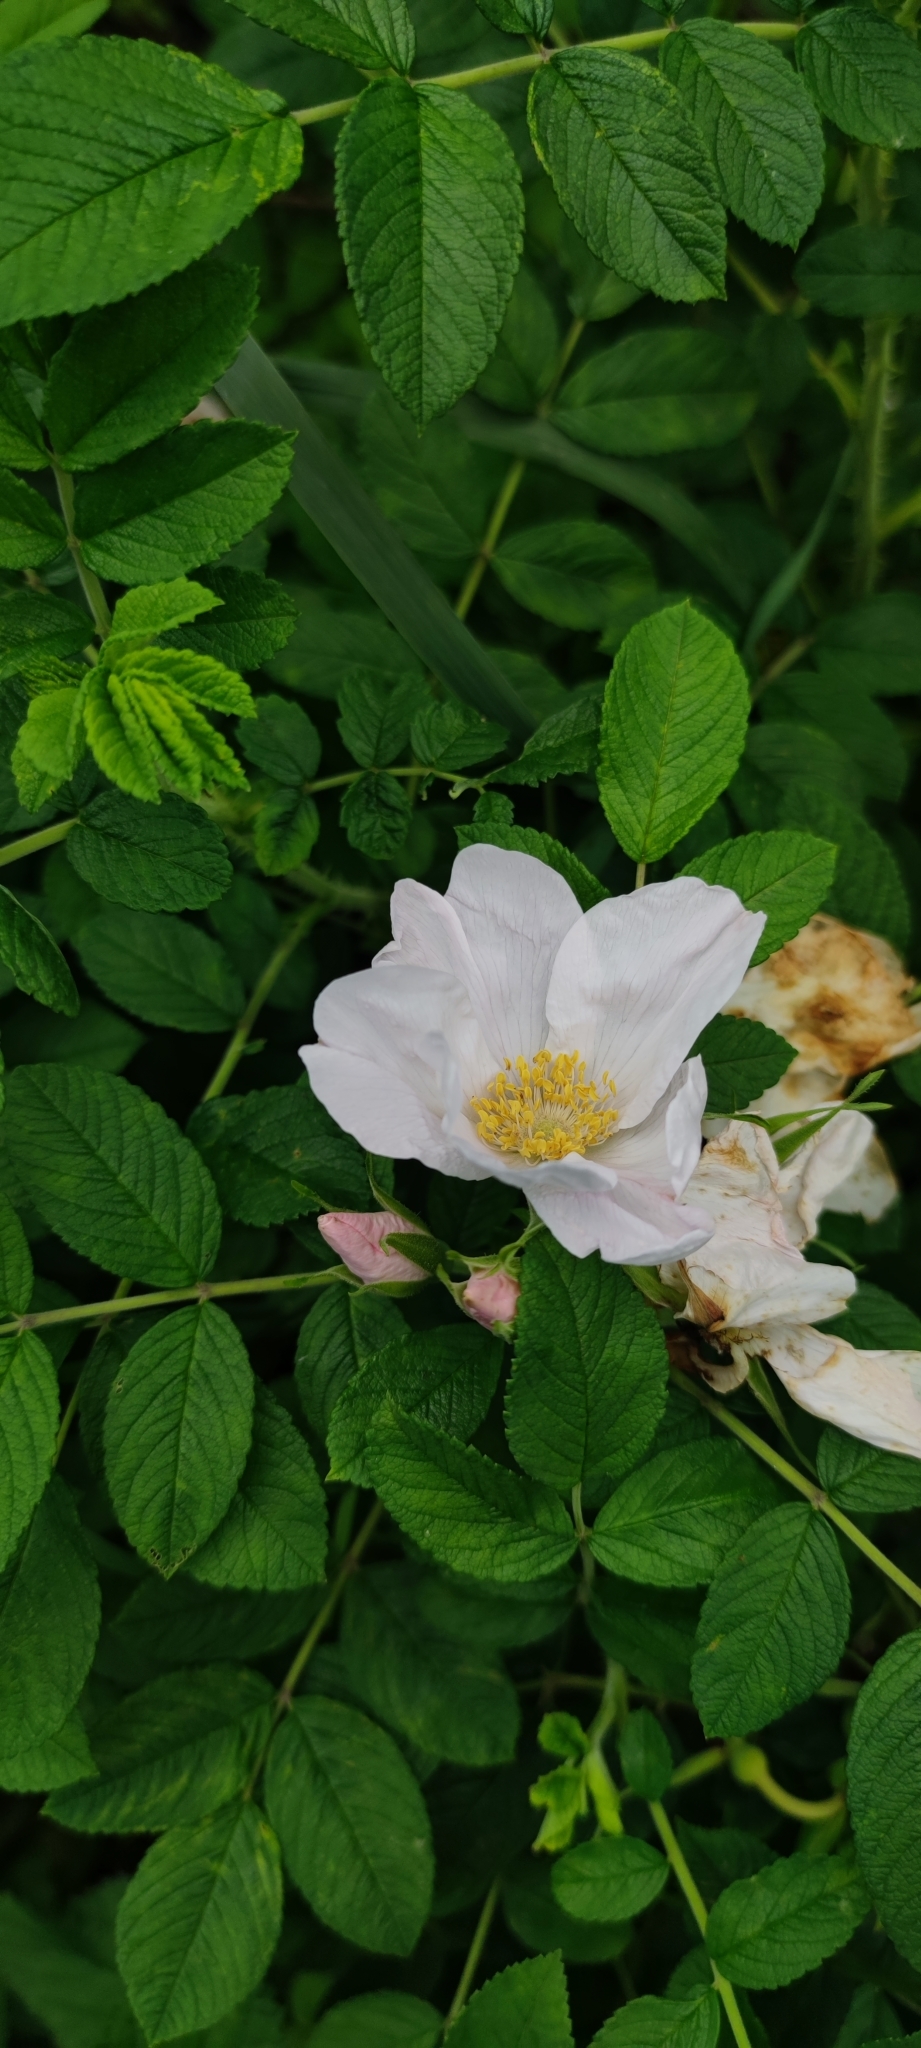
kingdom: Plantae
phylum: Tracheophyta
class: Magnoliopsida
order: Rosales
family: Rosaceae
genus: Rosa
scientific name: Rosa rugosa
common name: Japanese rose
